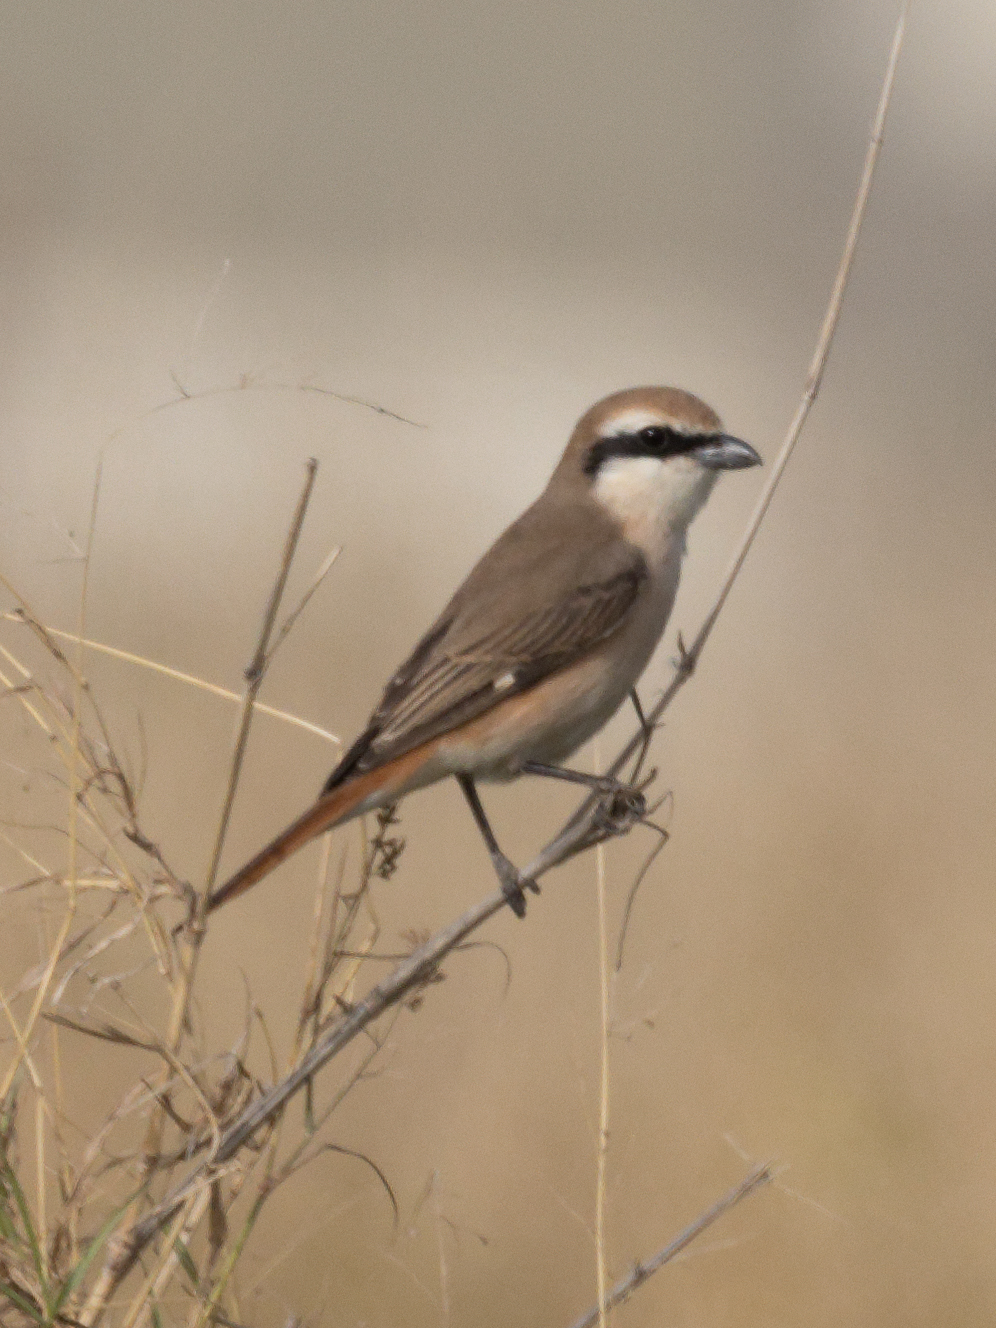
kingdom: Animalia
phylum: Chordata
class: Aves
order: Passeriformes
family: Laniidae
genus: Lanius
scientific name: Lanius phoenicuroides
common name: Red-tailed shrike
